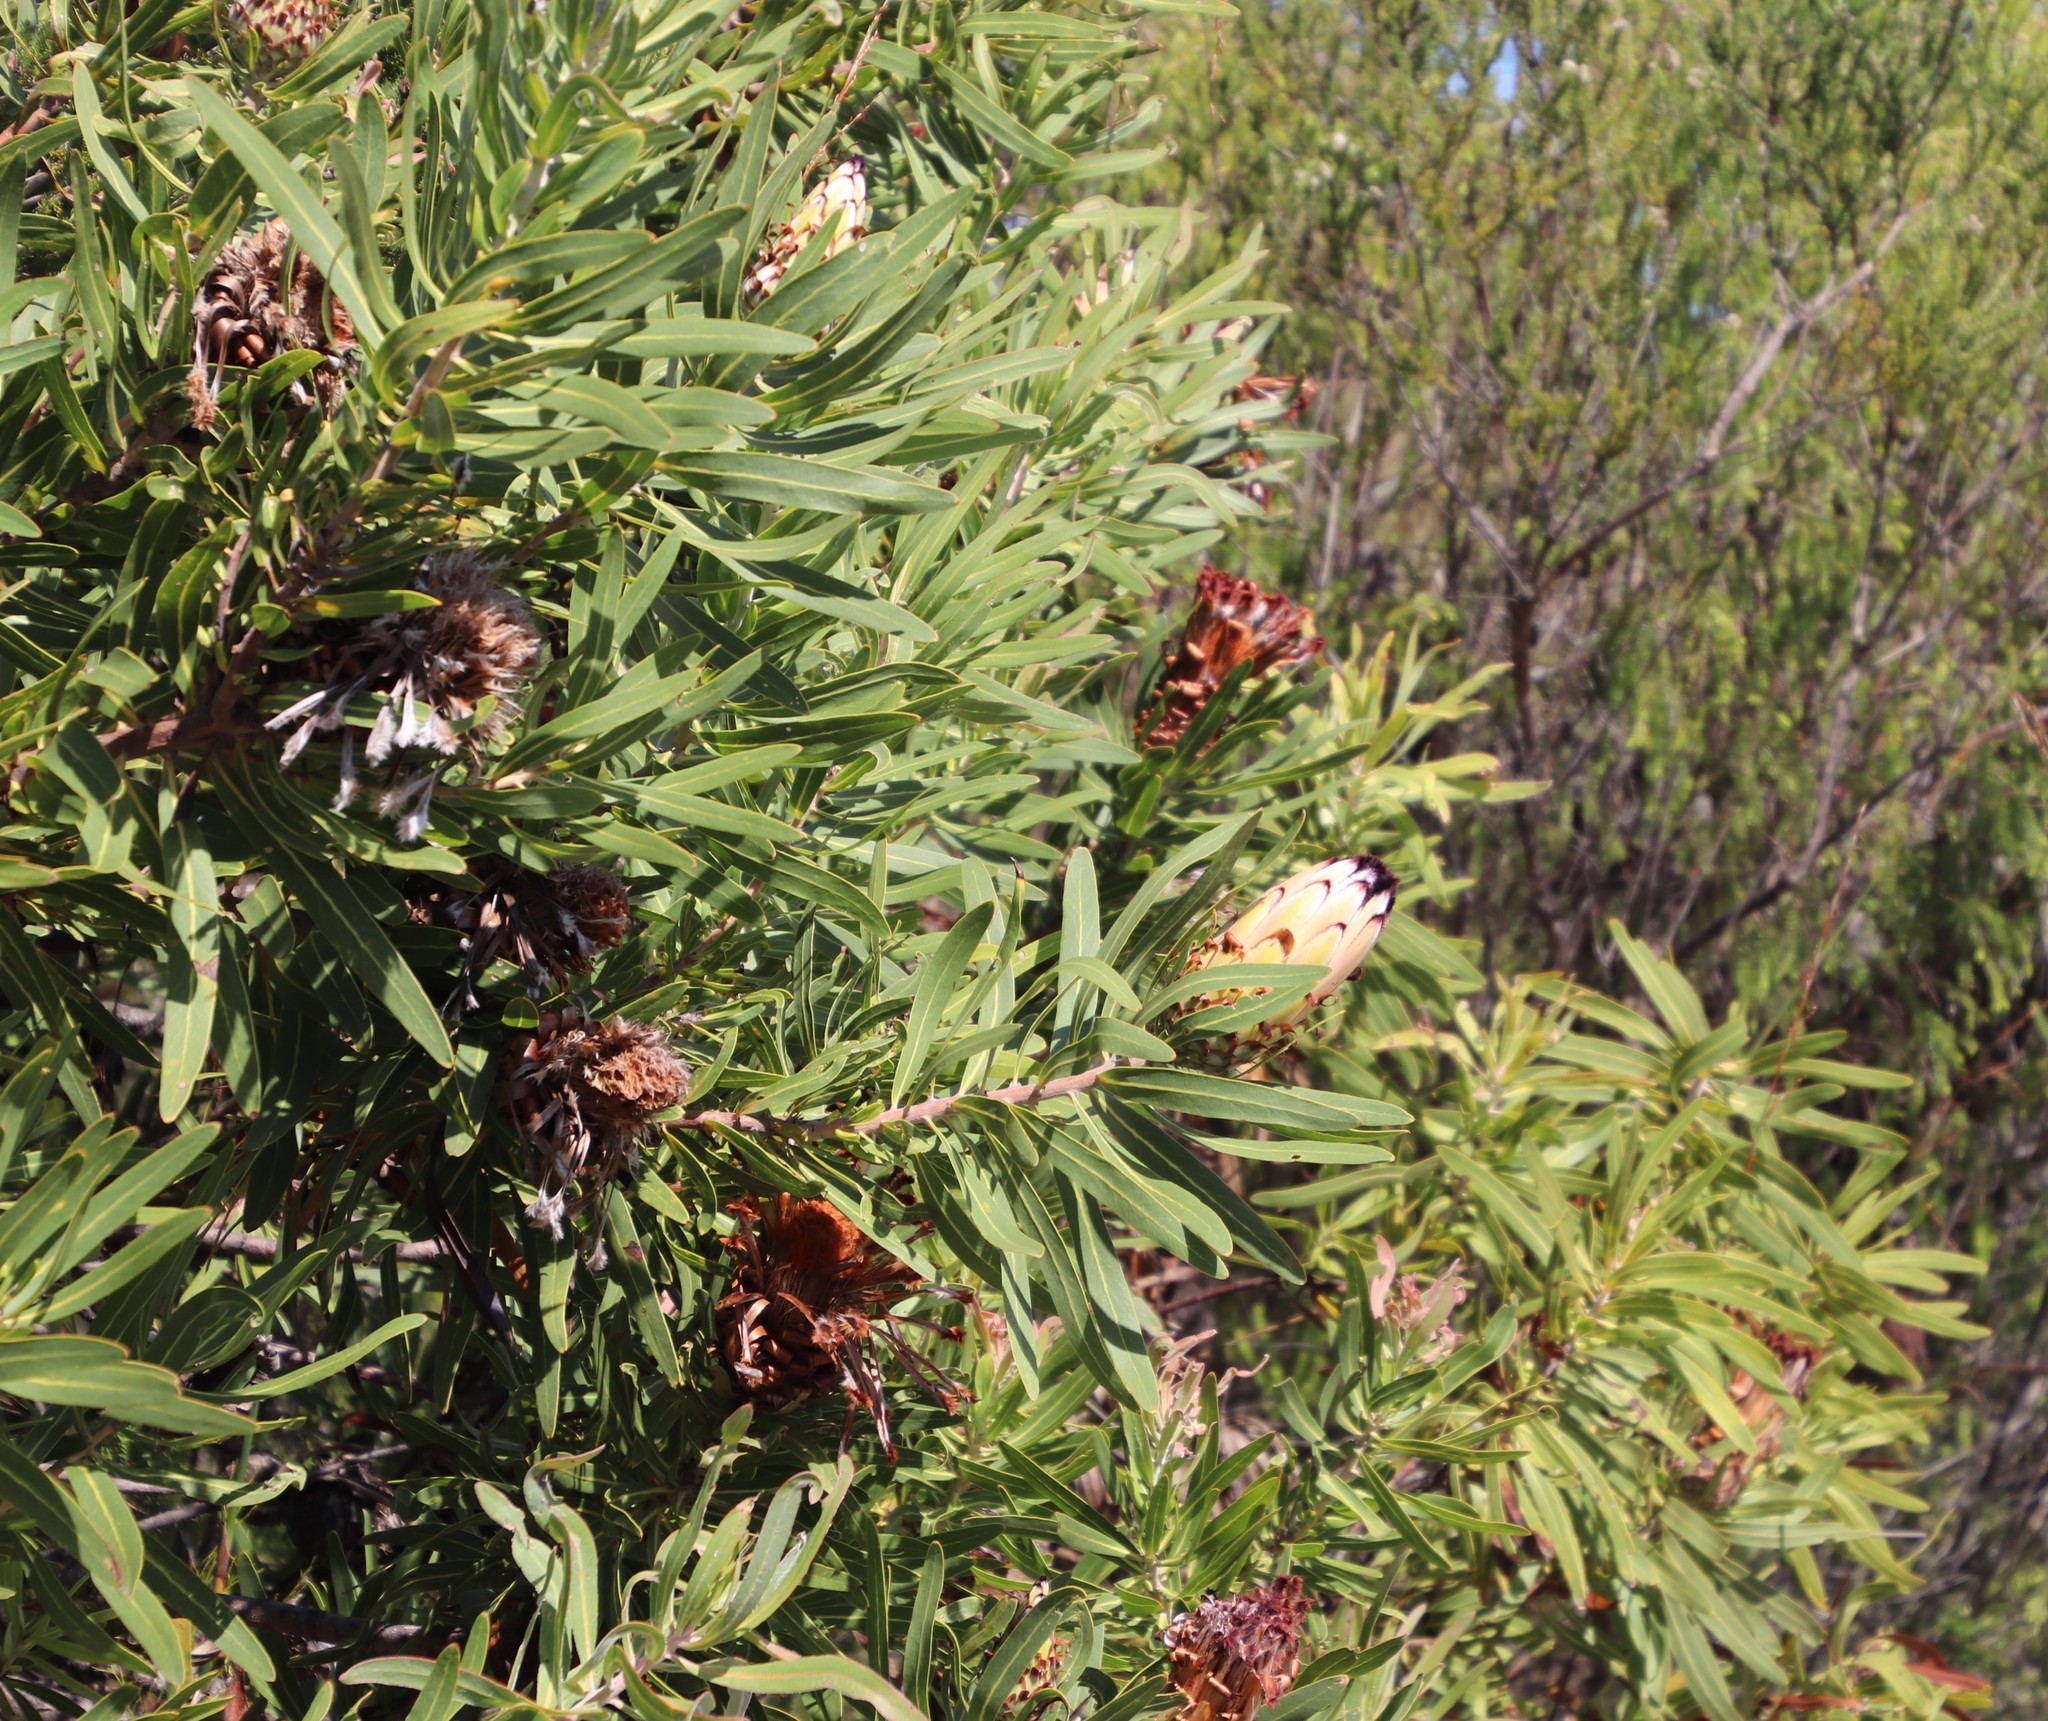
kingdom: Plantae
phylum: Tracheophyta
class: Magnoliopsida
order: Proteales
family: Proteaceae
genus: Protea
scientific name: Protea neriifolia
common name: Blue sugarbush
